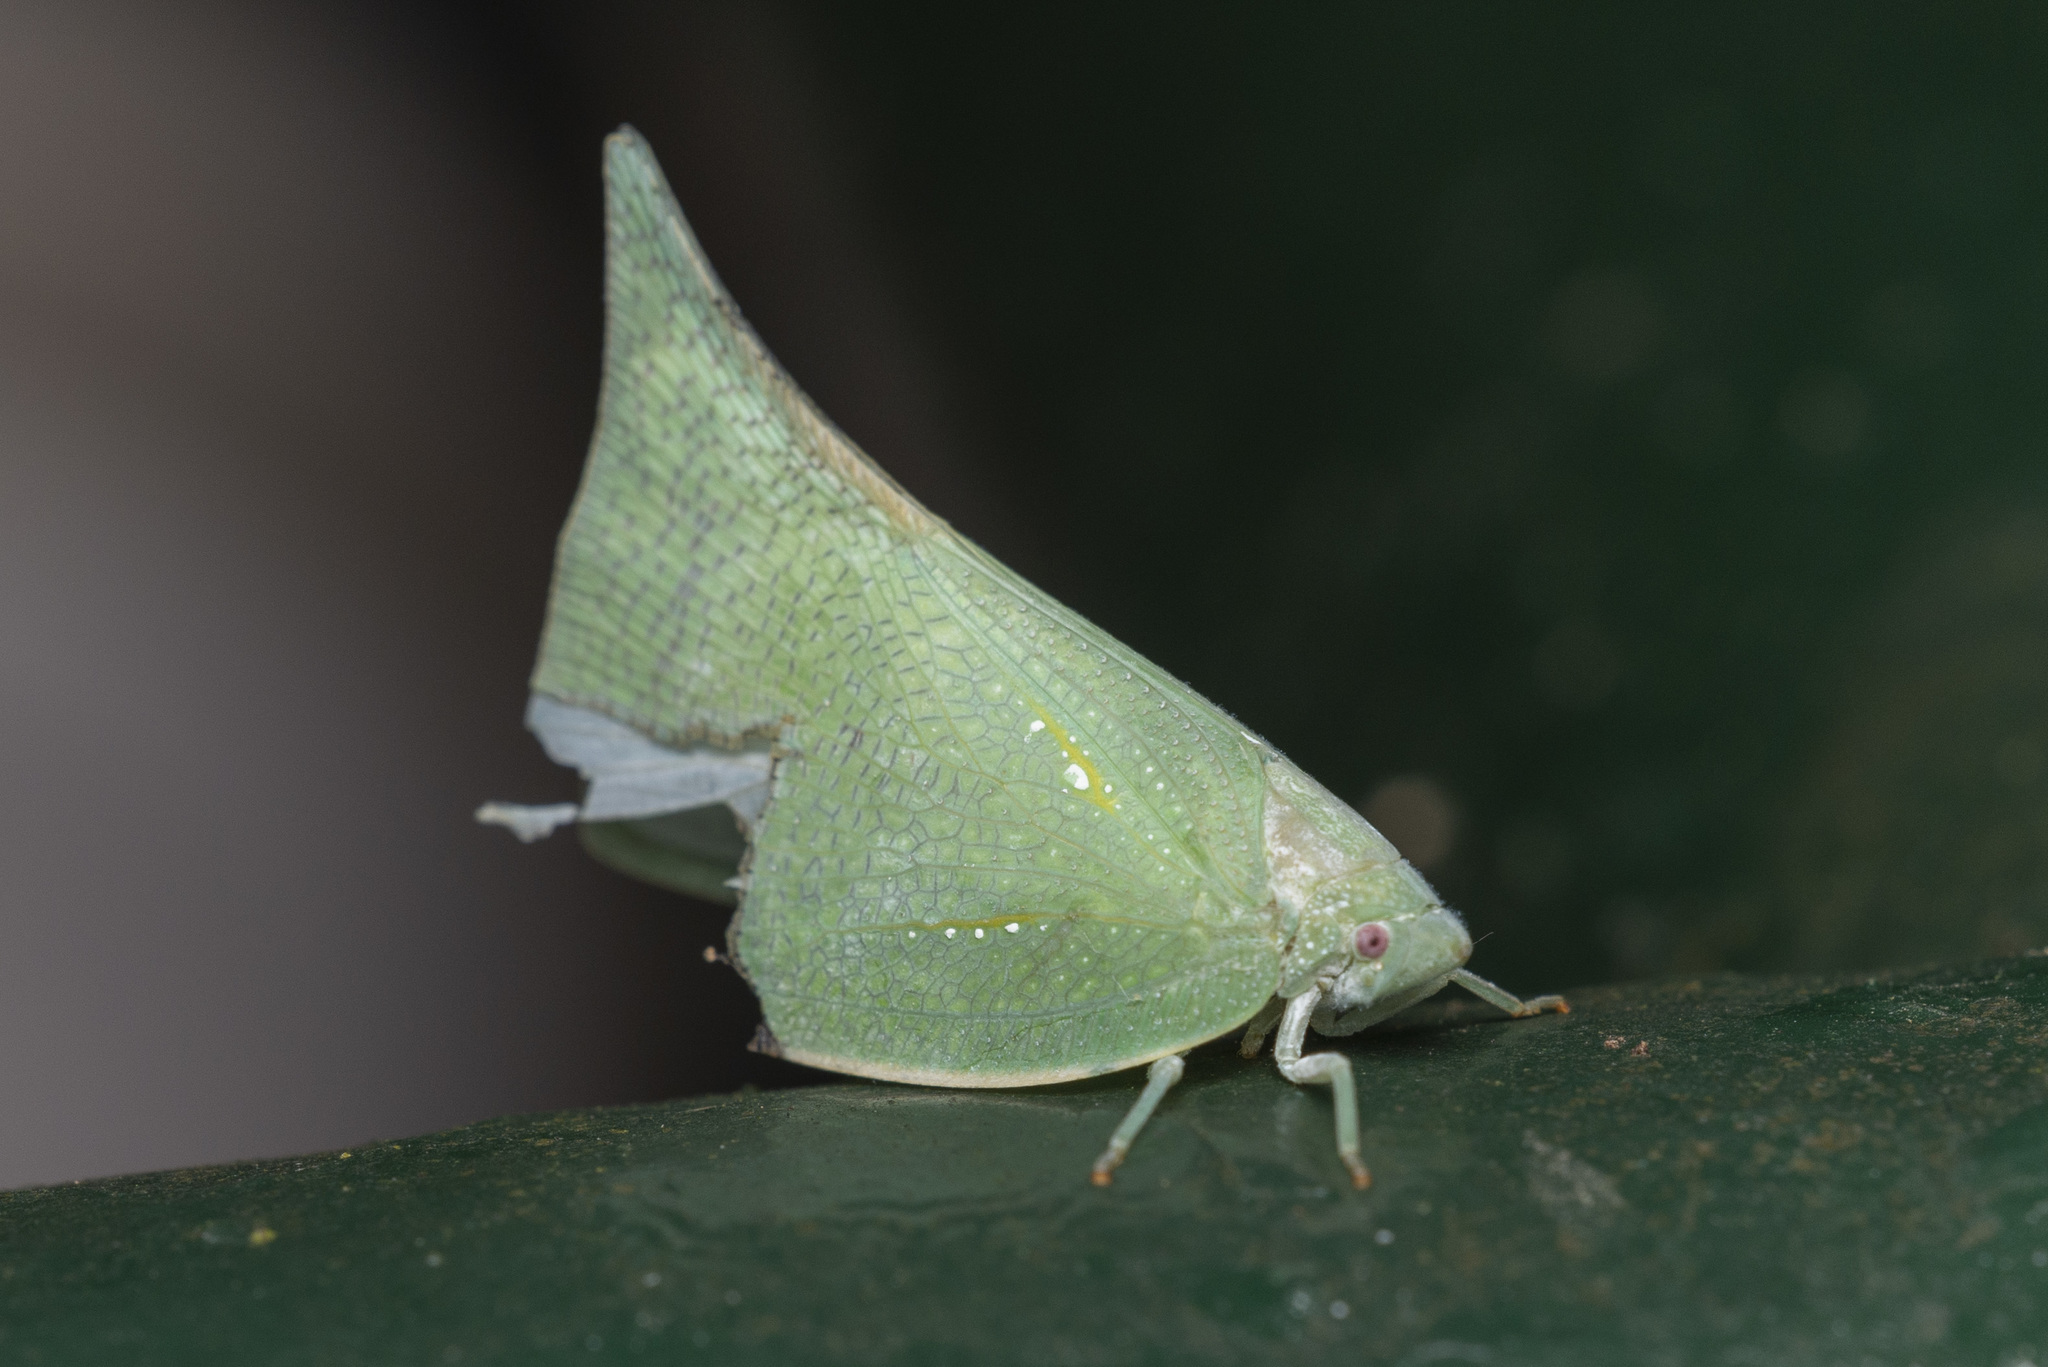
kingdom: Animalia
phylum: Arthropoda
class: Insecta
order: Hemiptera
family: Flatidae
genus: Lawana
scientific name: Lawana imitata
